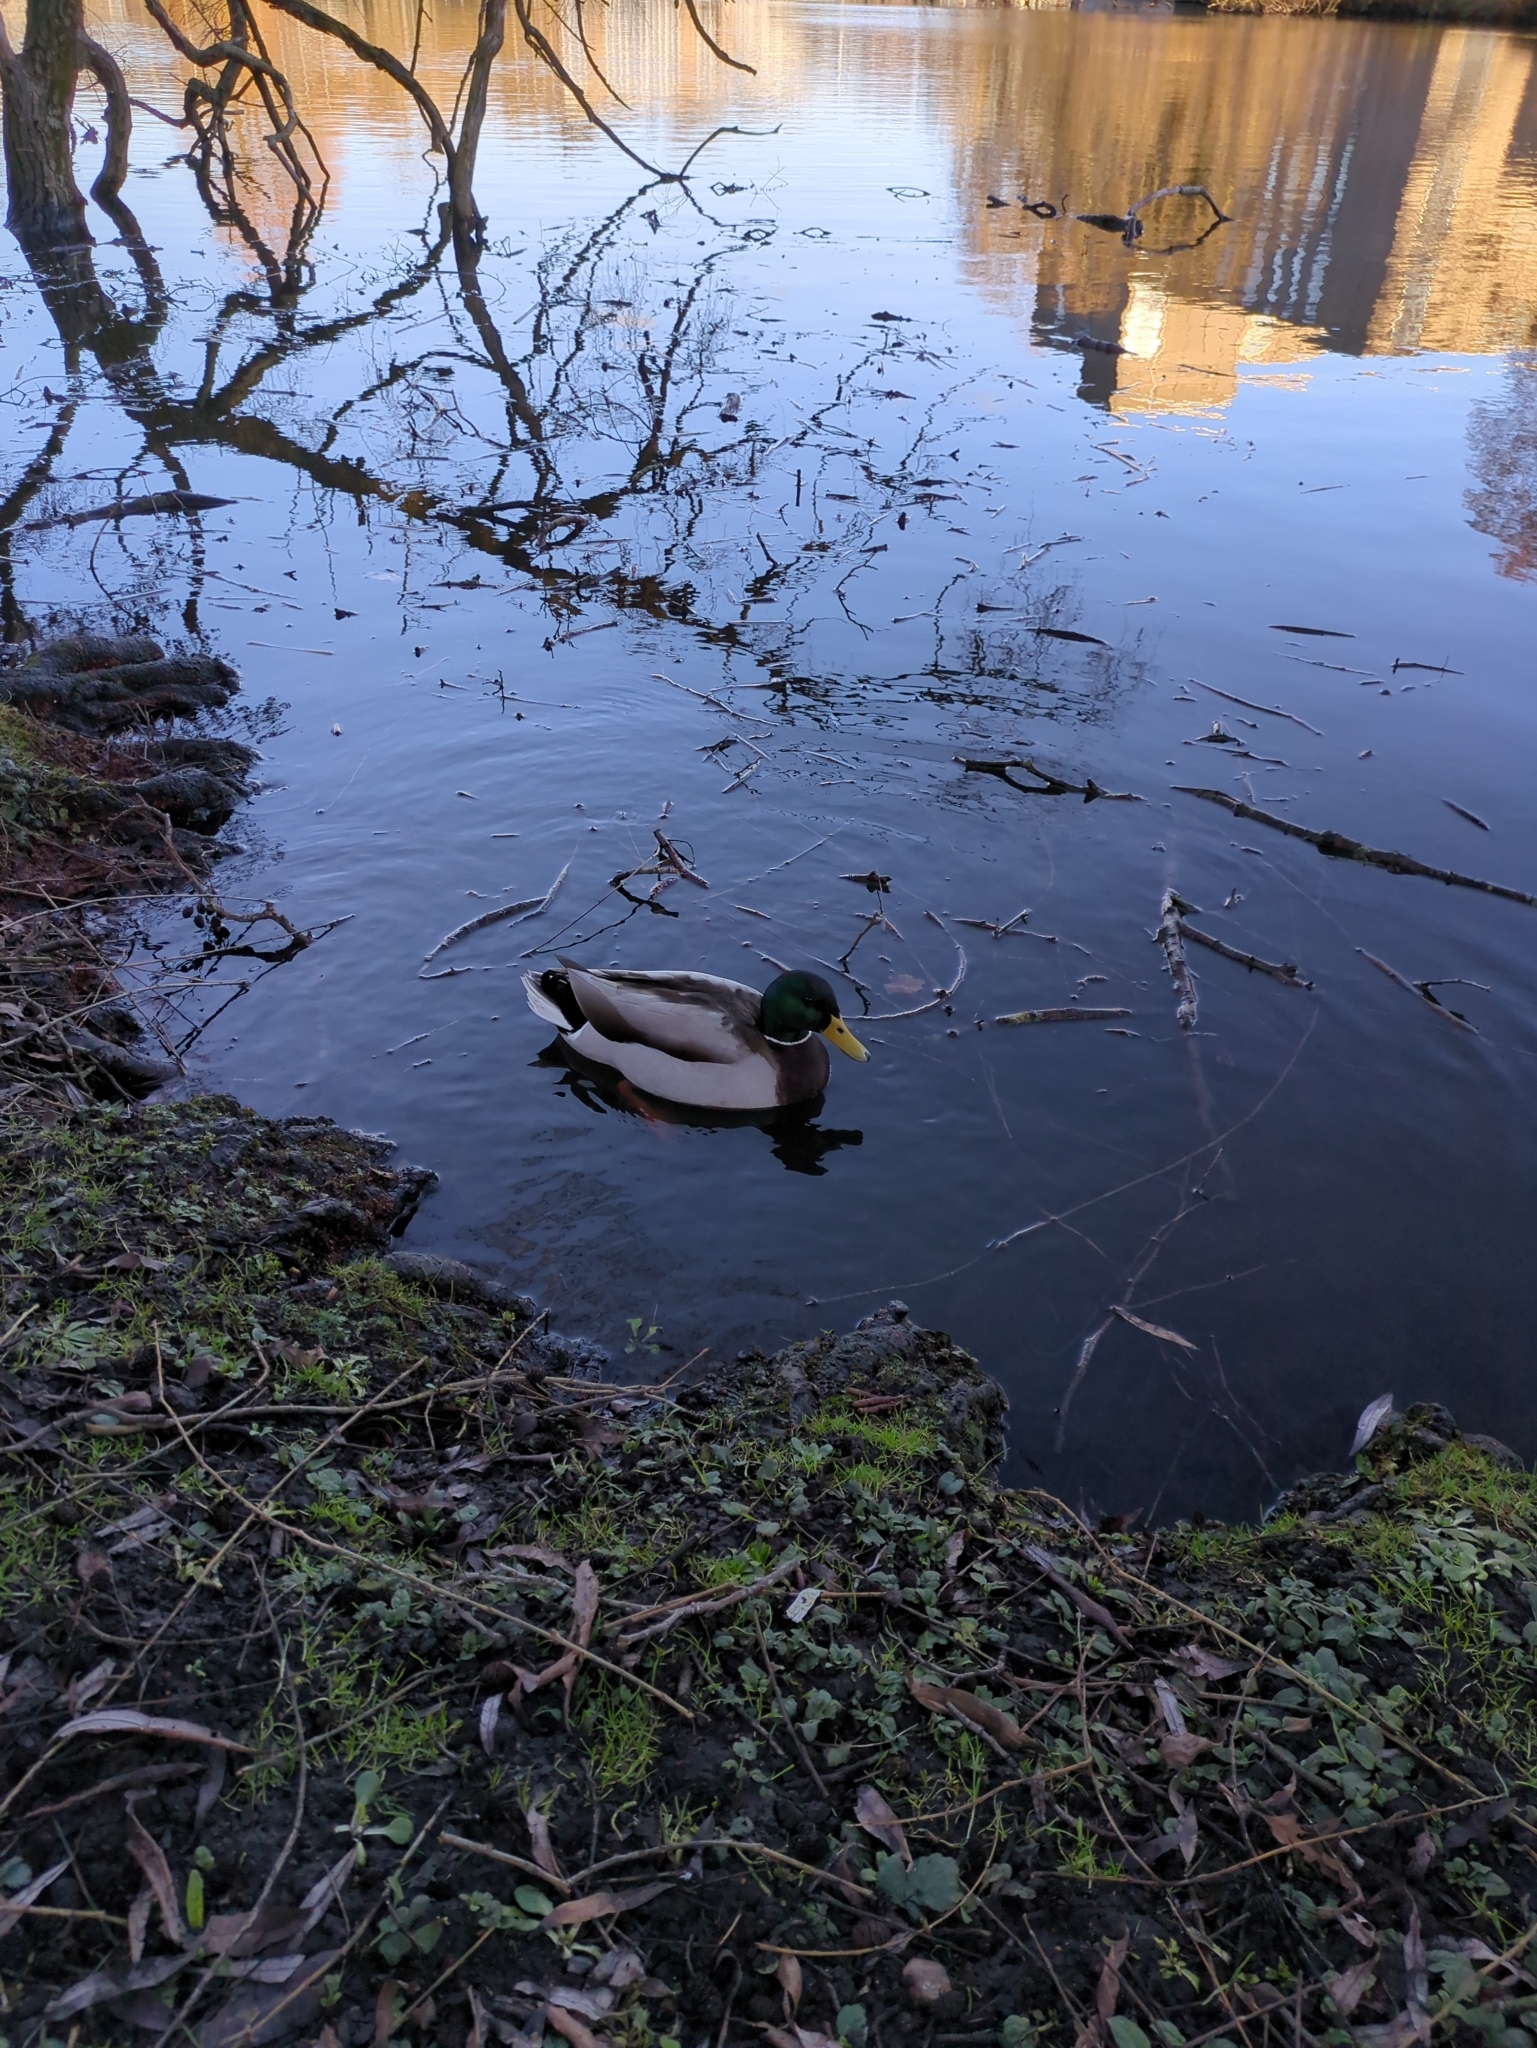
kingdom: Animalia
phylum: Chordata
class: Aves
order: Anseriformes
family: Anatidae
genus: Anas
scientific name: Anas platyrhynchos
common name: Mallard
